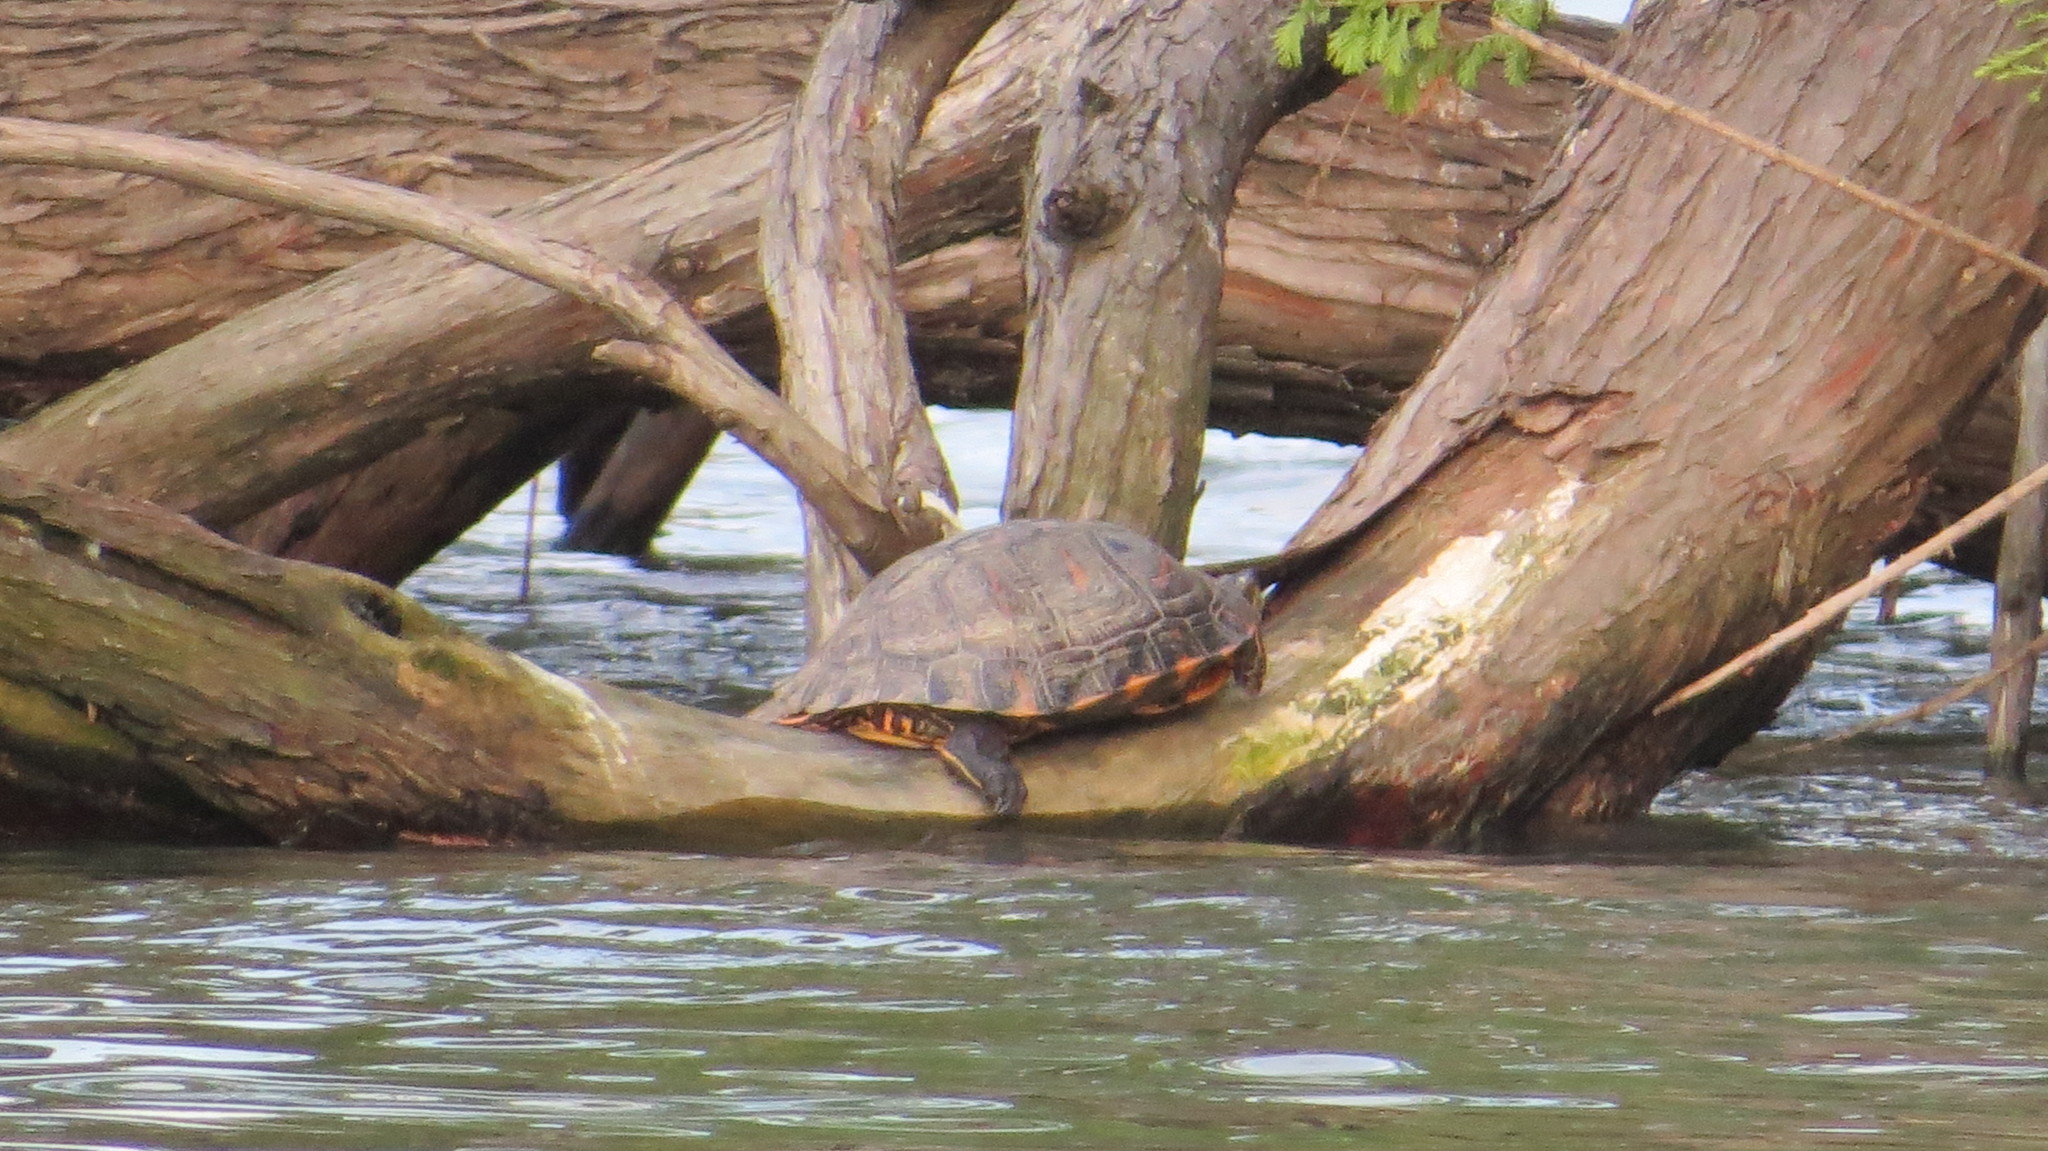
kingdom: Animalia
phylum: Chordata
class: Testudines
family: Emydidae
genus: Trachemys
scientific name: Trachemys dorbigni
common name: Black-bellied slider
